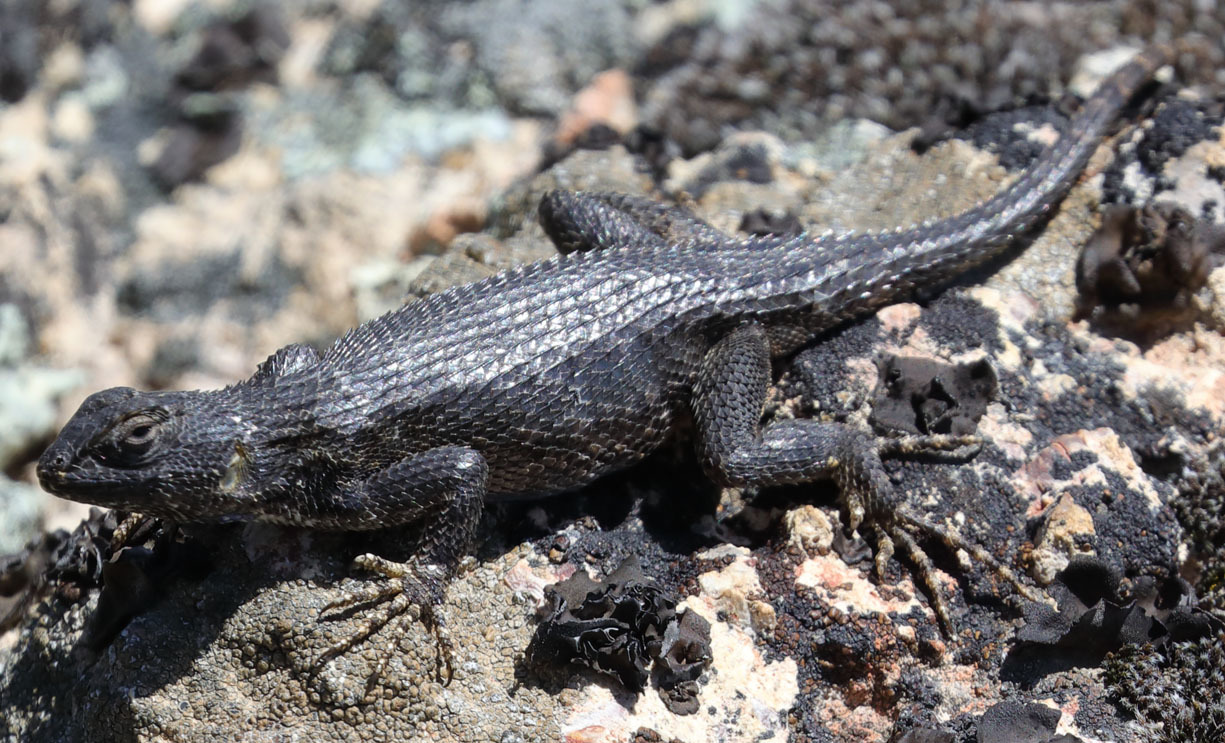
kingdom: Animalia
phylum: Chordata
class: Squamata
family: Phrynosomatidae
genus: Sceloporus
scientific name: Sceloporus occidentalis
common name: Western fence lizard
